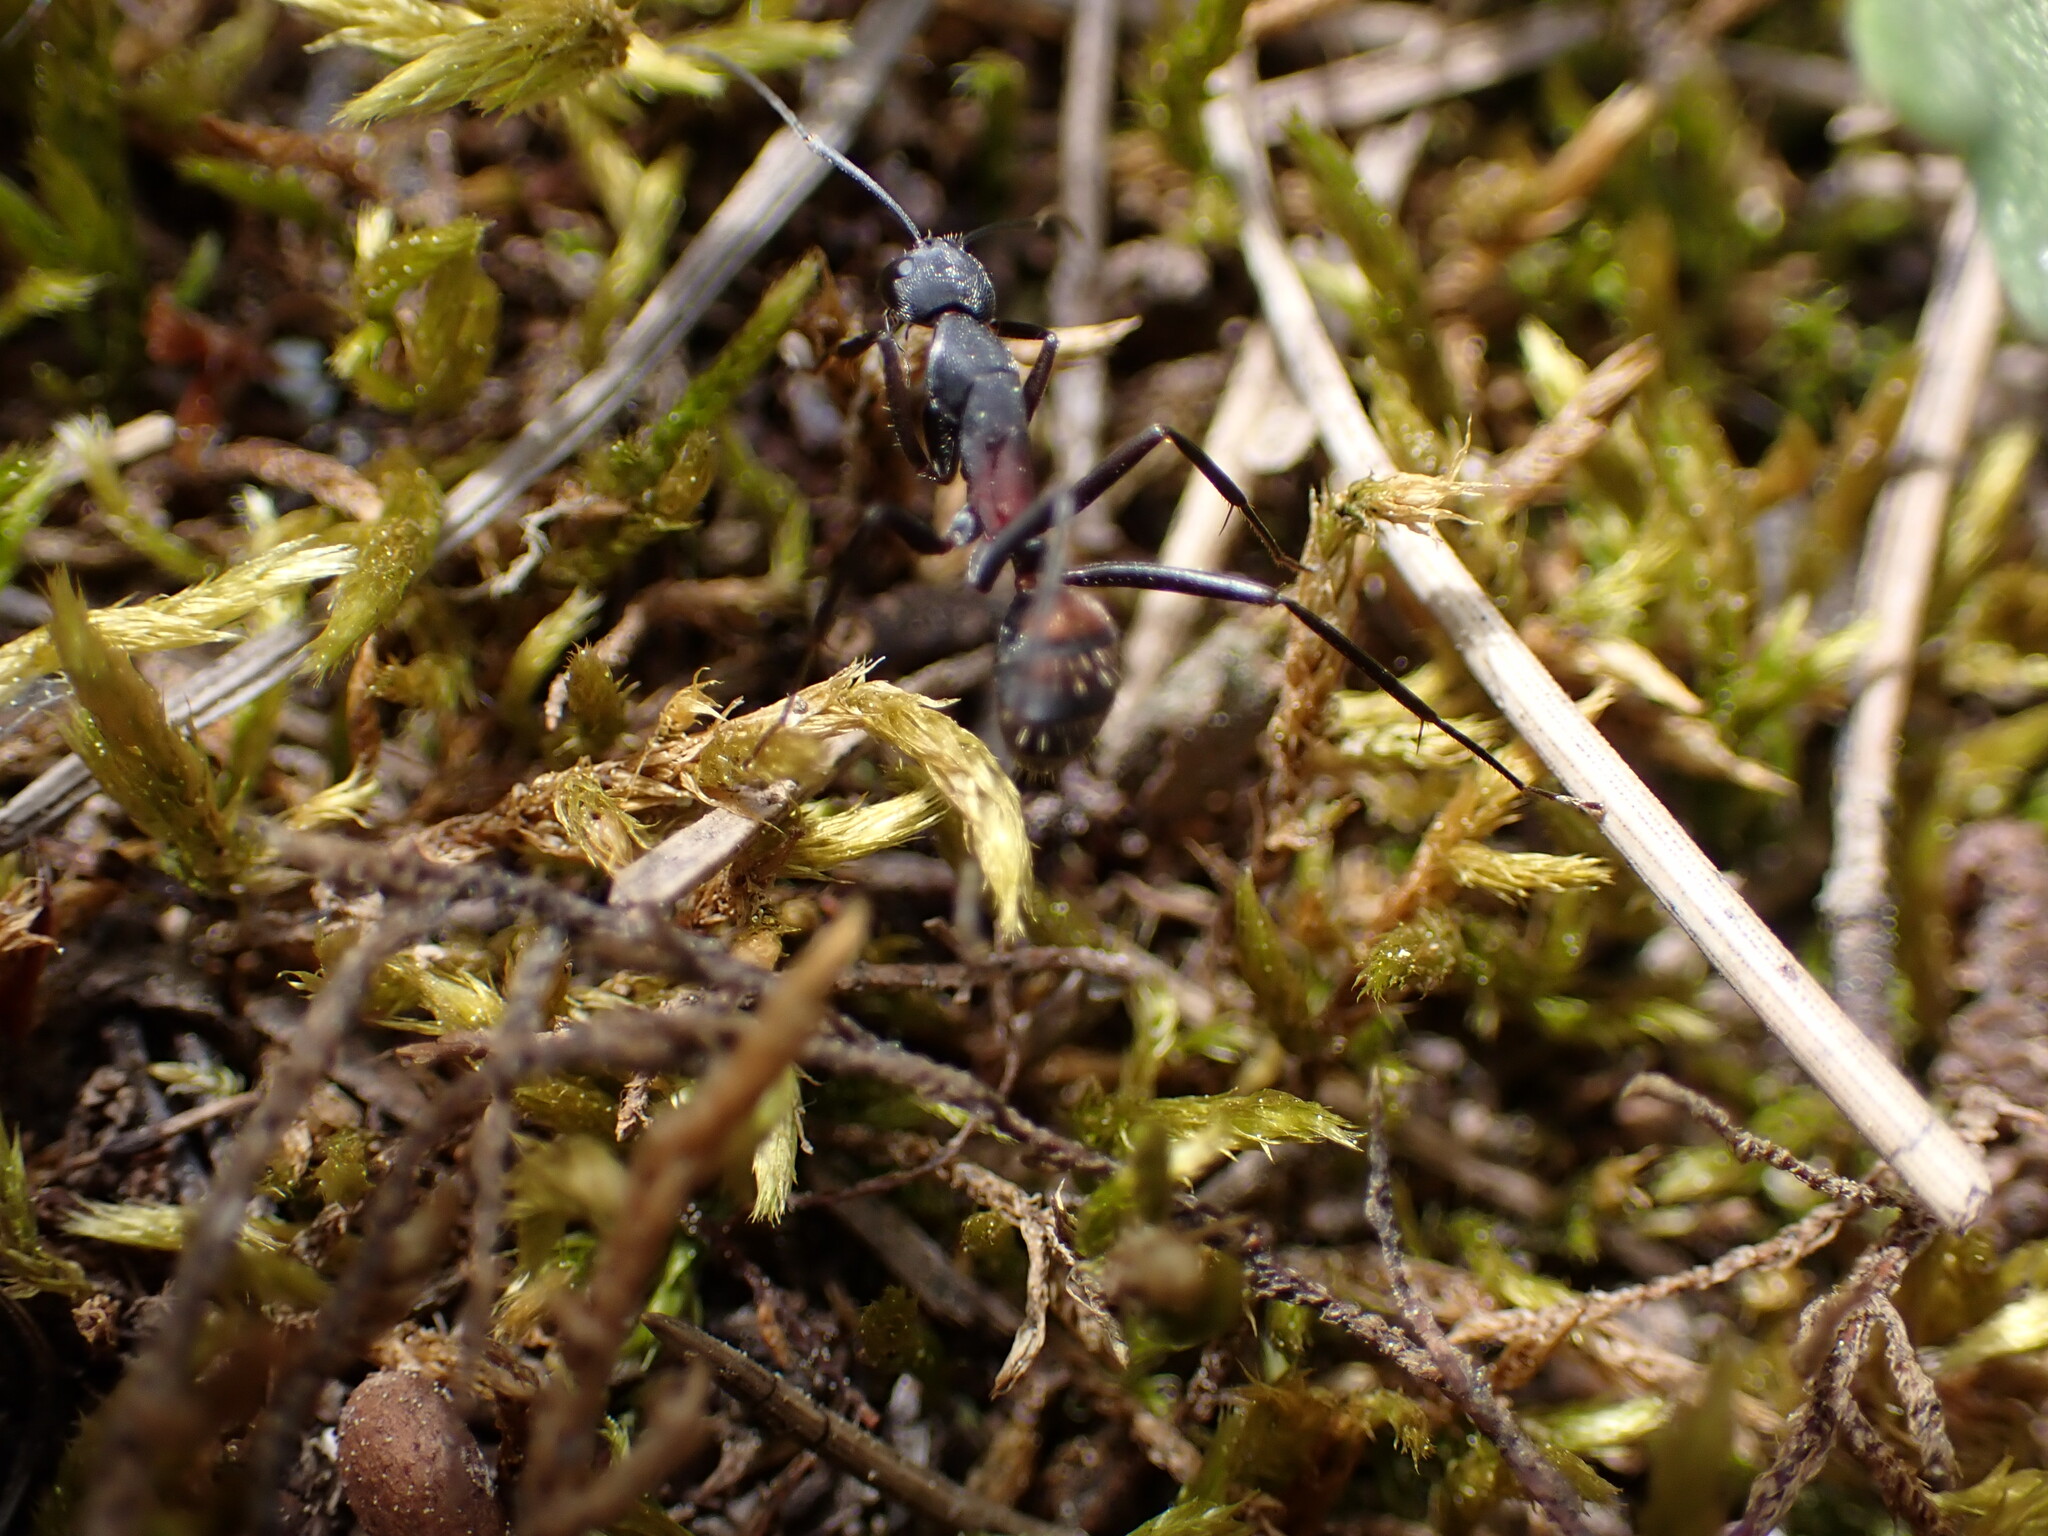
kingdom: Animalia
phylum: Arthropoda
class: Insecta
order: Hymenoptera
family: Formicidae
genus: Camponotus
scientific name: Camponotus cruentatus
